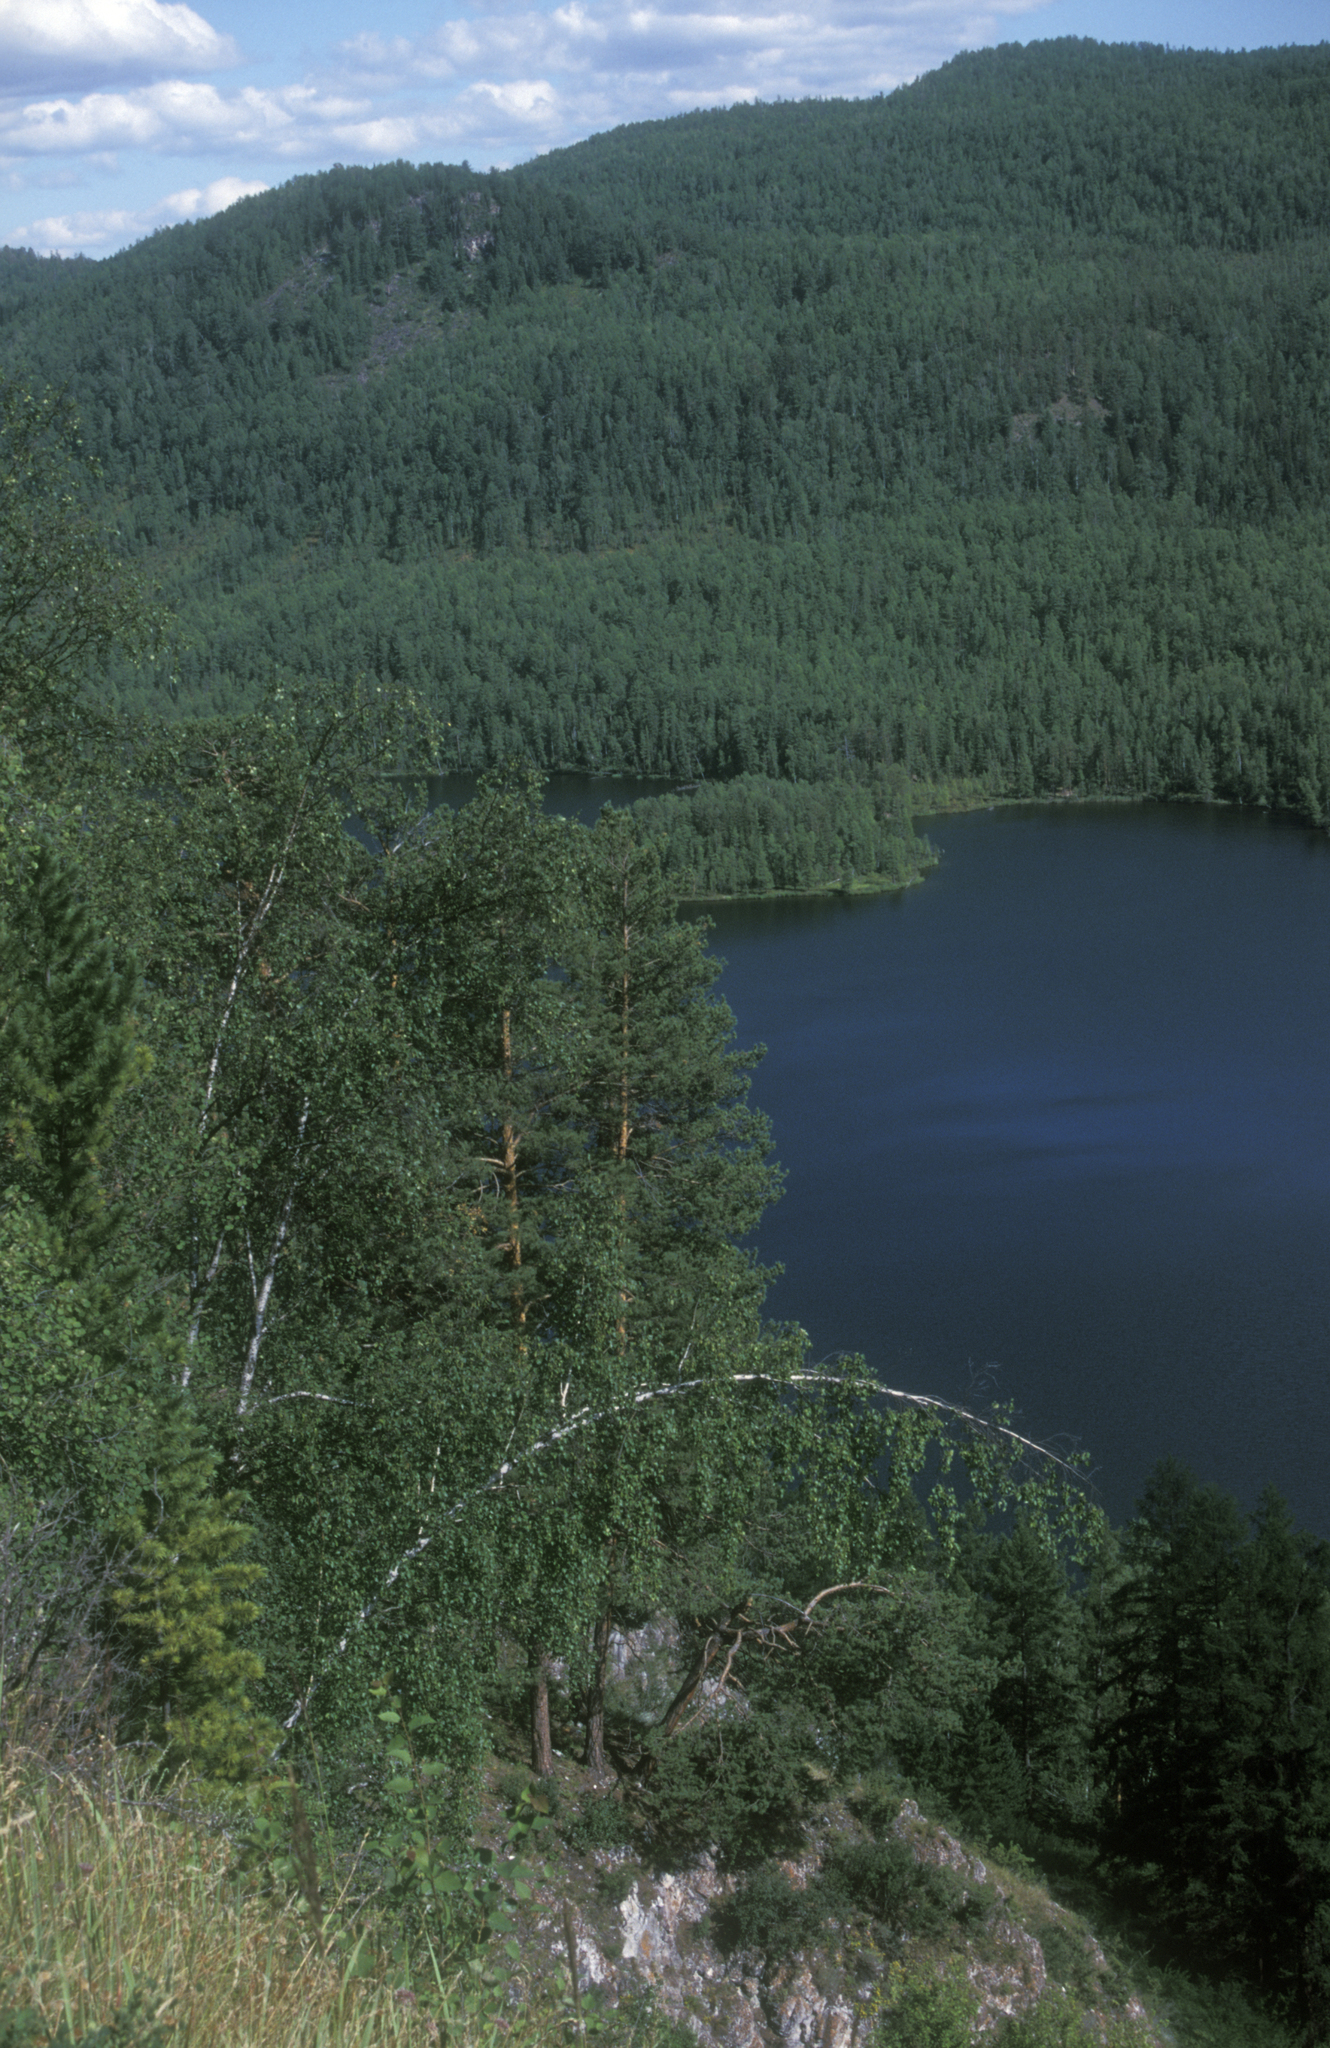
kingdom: Plantae
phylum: Tracheophyta
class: Magnoliopsida
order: Fagales
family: Betulaceae
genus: Betula
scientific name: Betula
